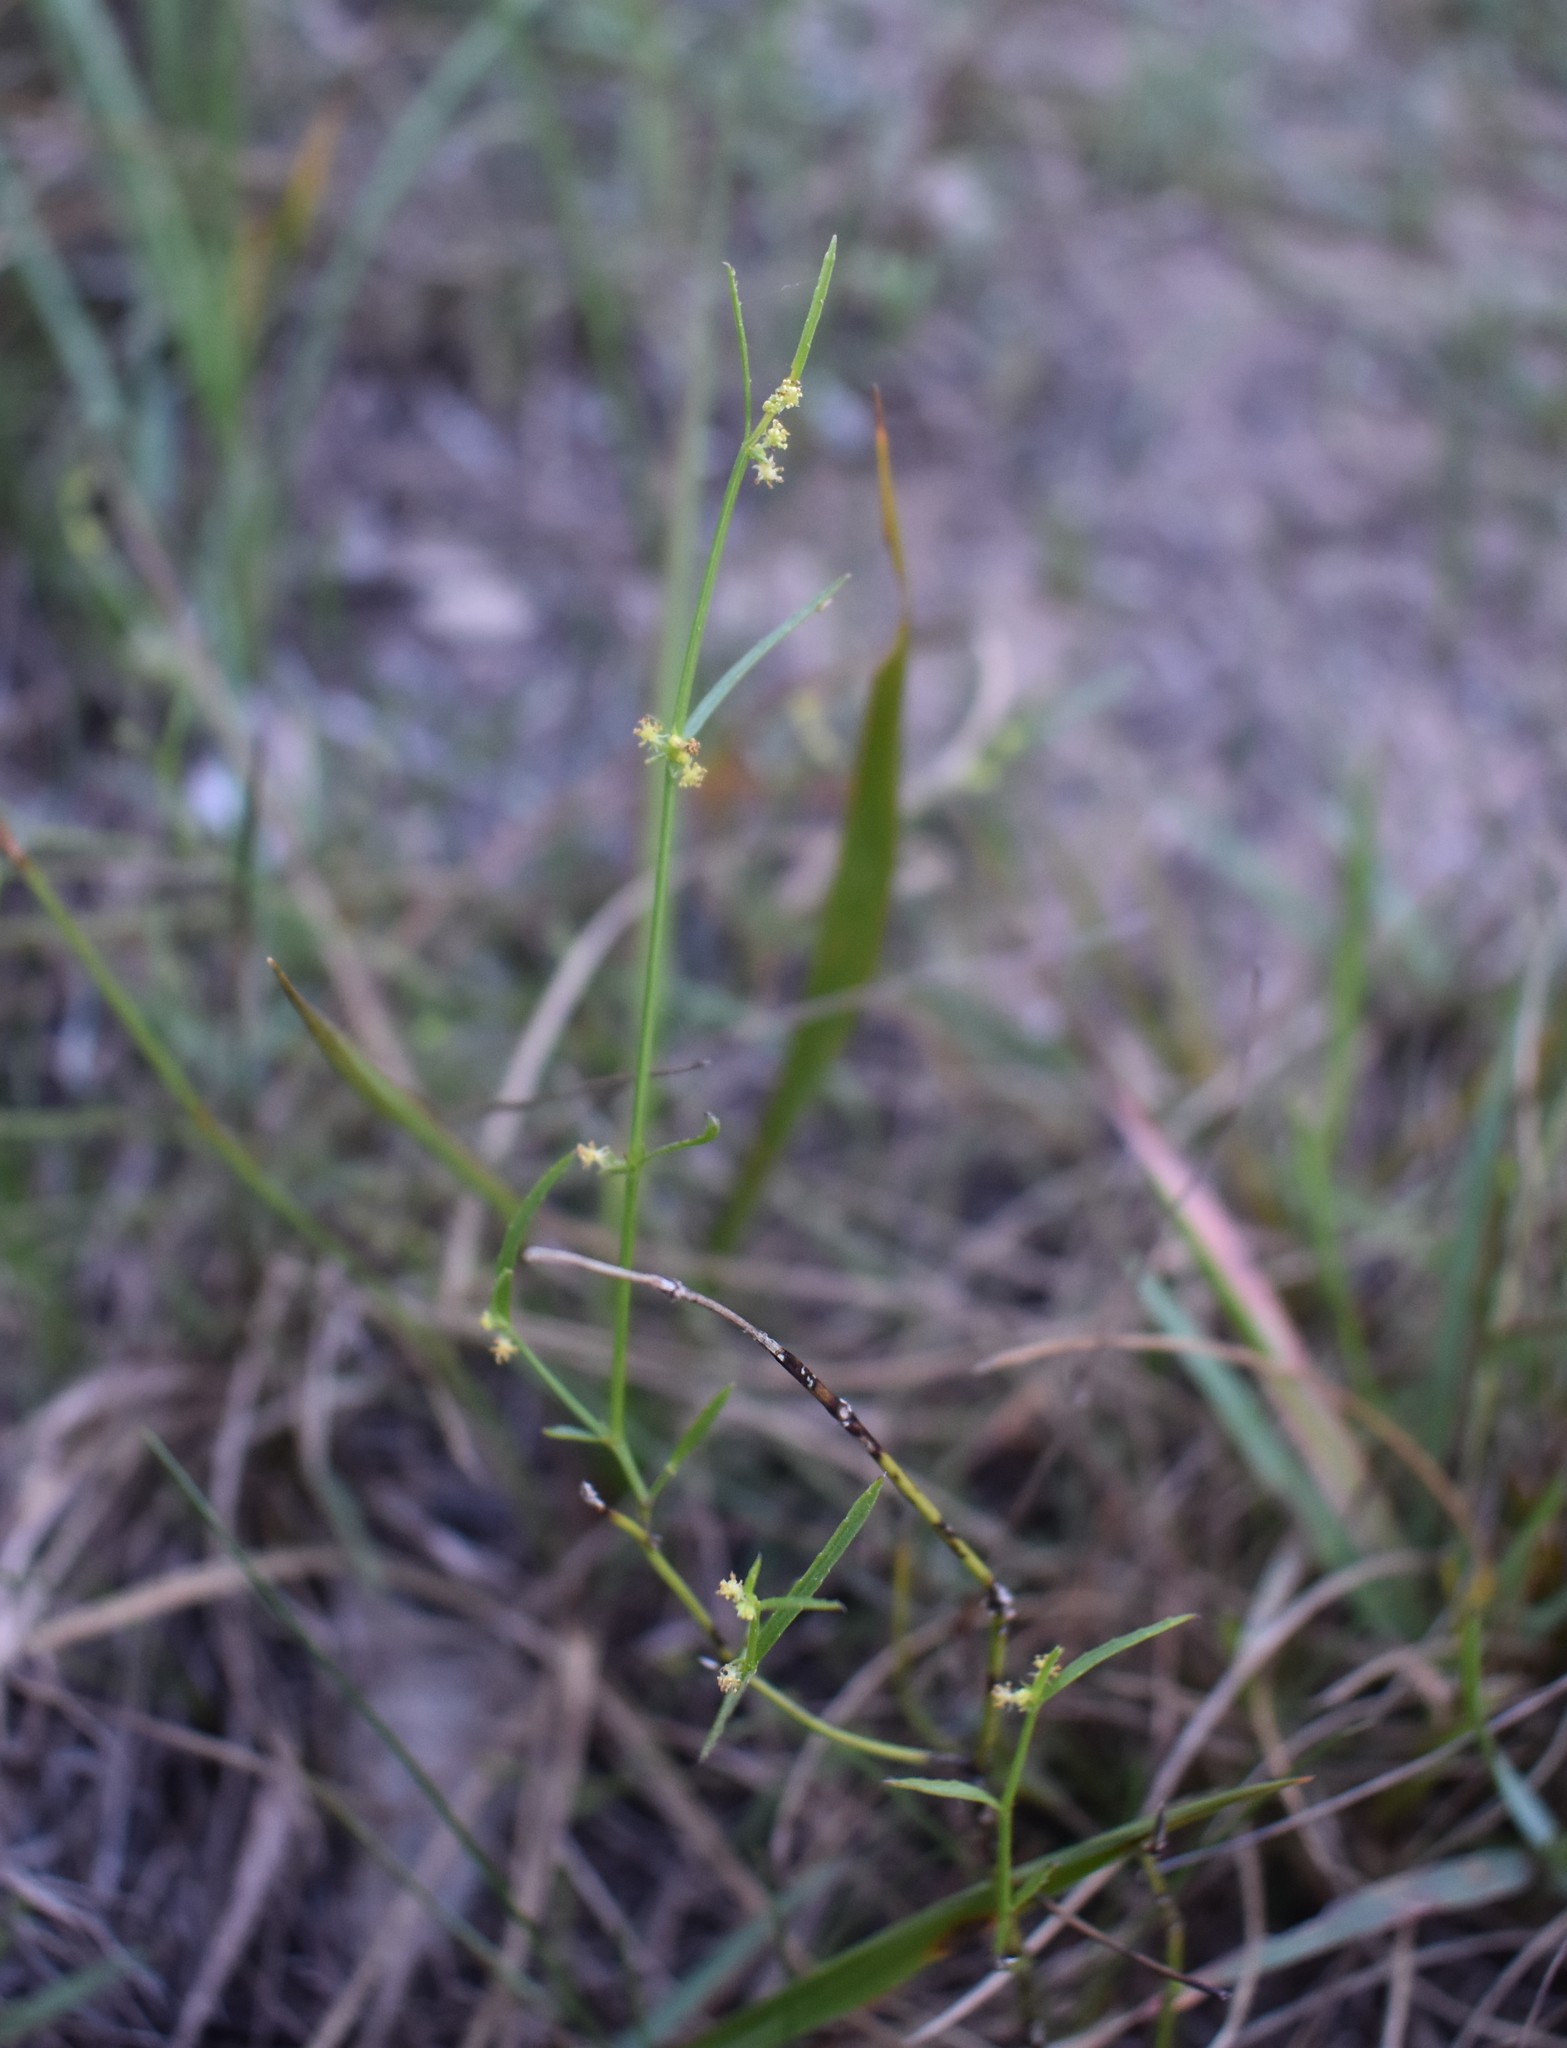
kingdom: Plantae
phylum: Tracheophyta
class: Magnoliopsida
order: Malpighiales
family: Euphorbiaceae
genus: Adenocline
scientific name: Adenocline pauciflora
